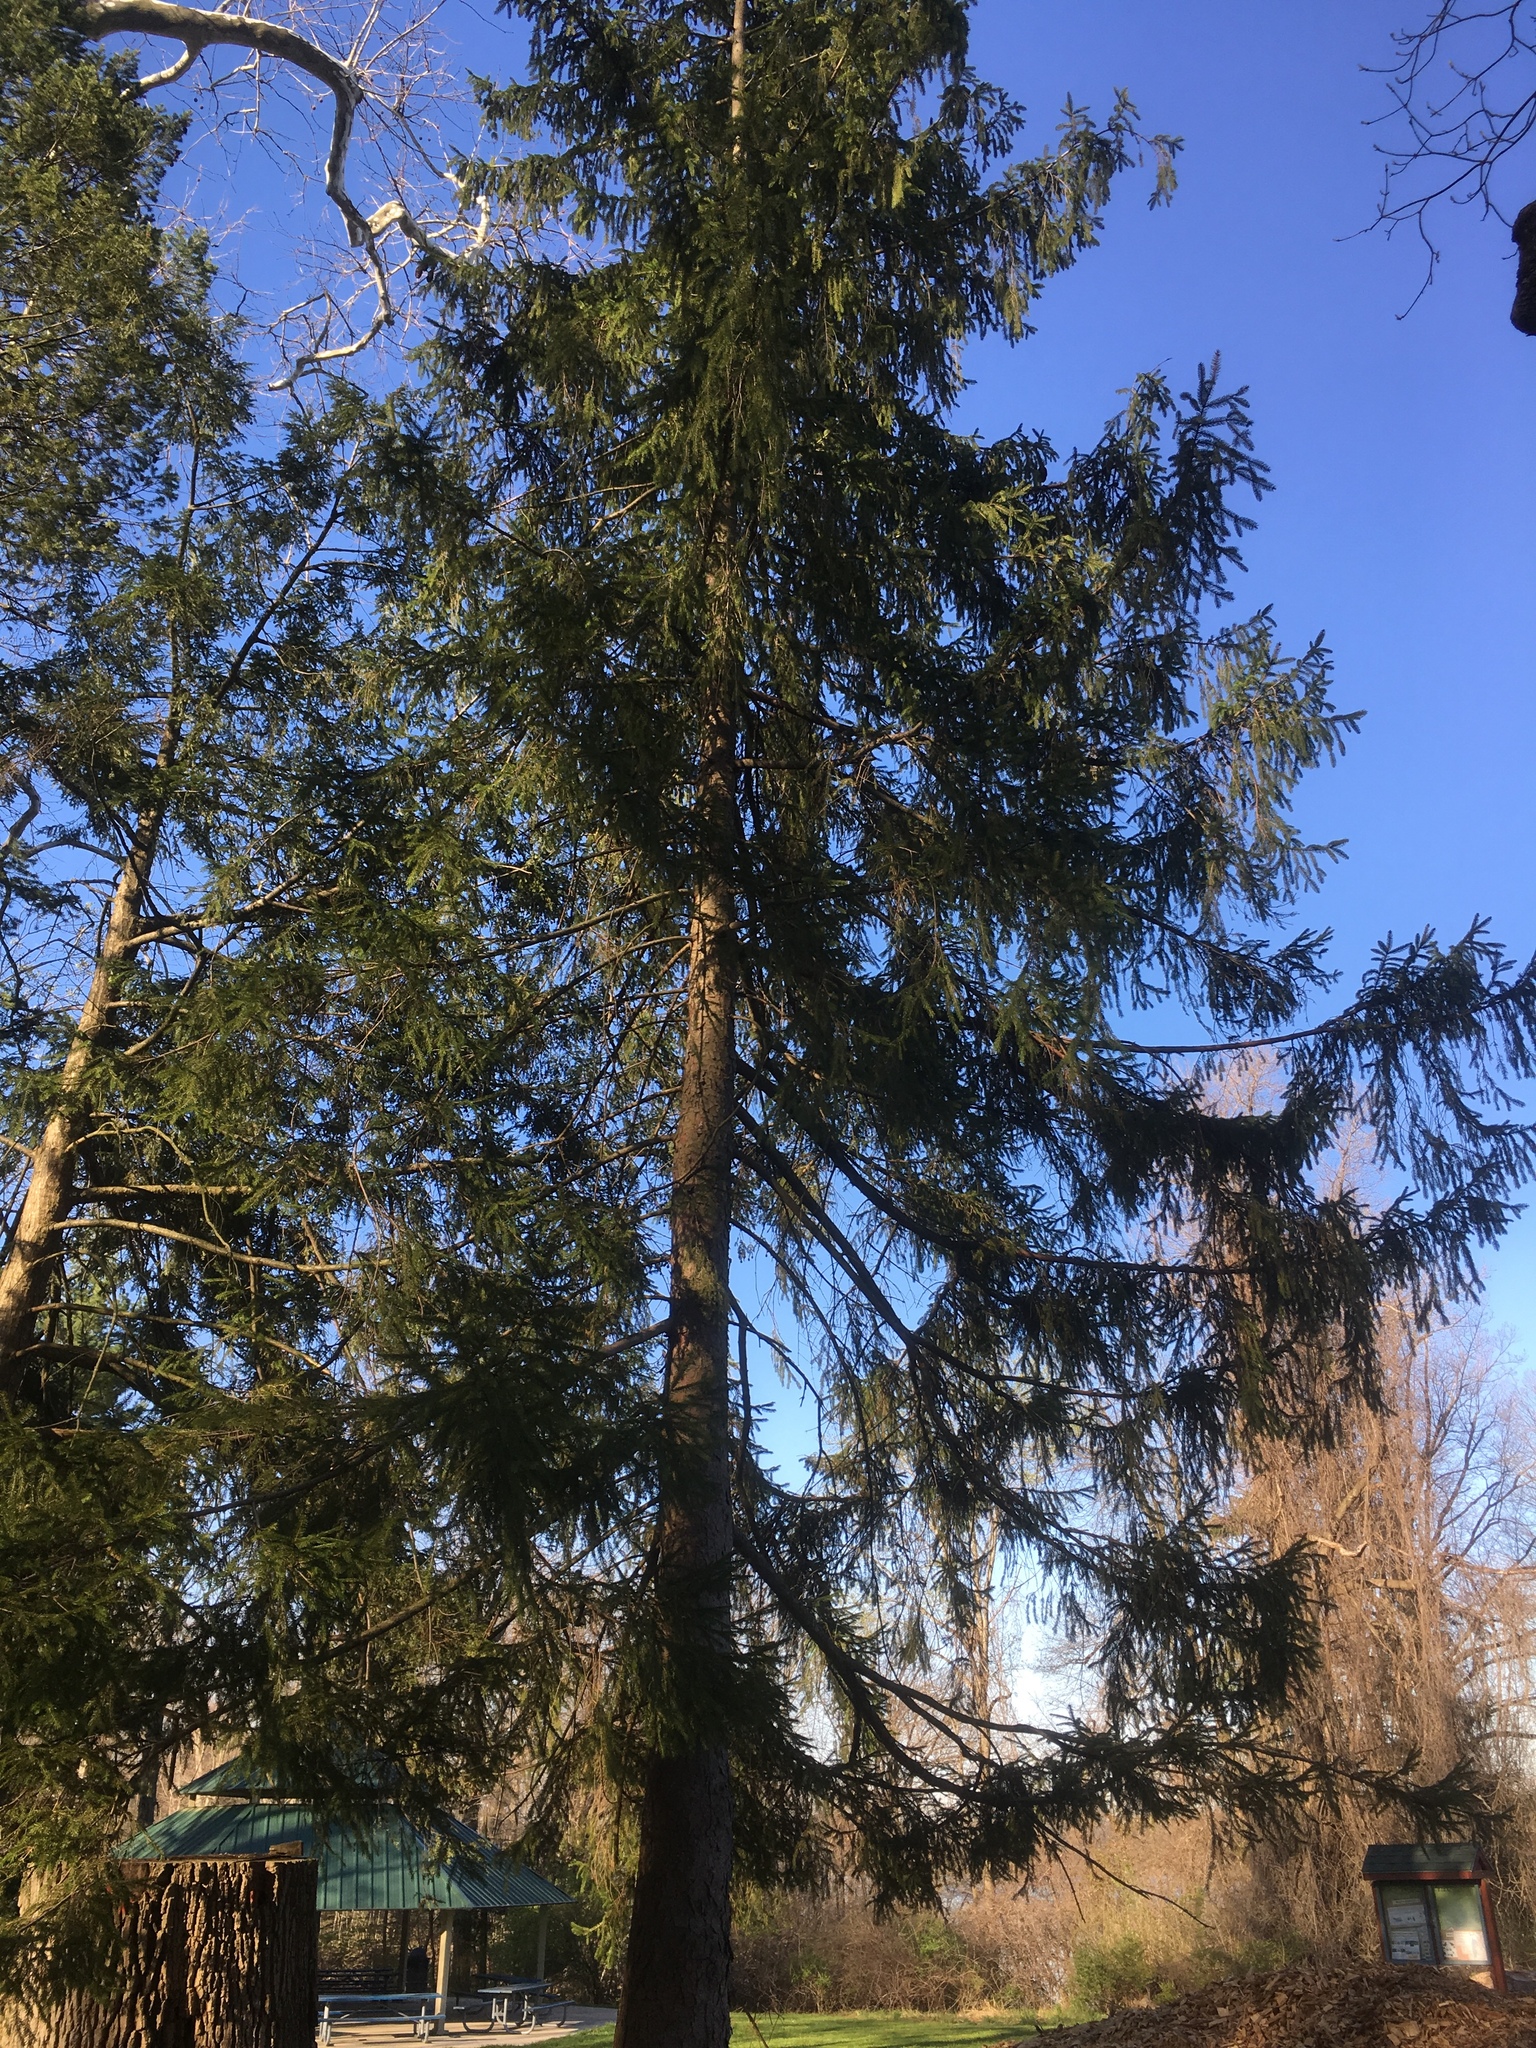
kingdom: Plantae
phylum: Tracheophyta
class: Pinopsida
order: Pinales
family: Pinaceae
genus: Picea
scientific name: Picea abies
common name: Norway spruce
